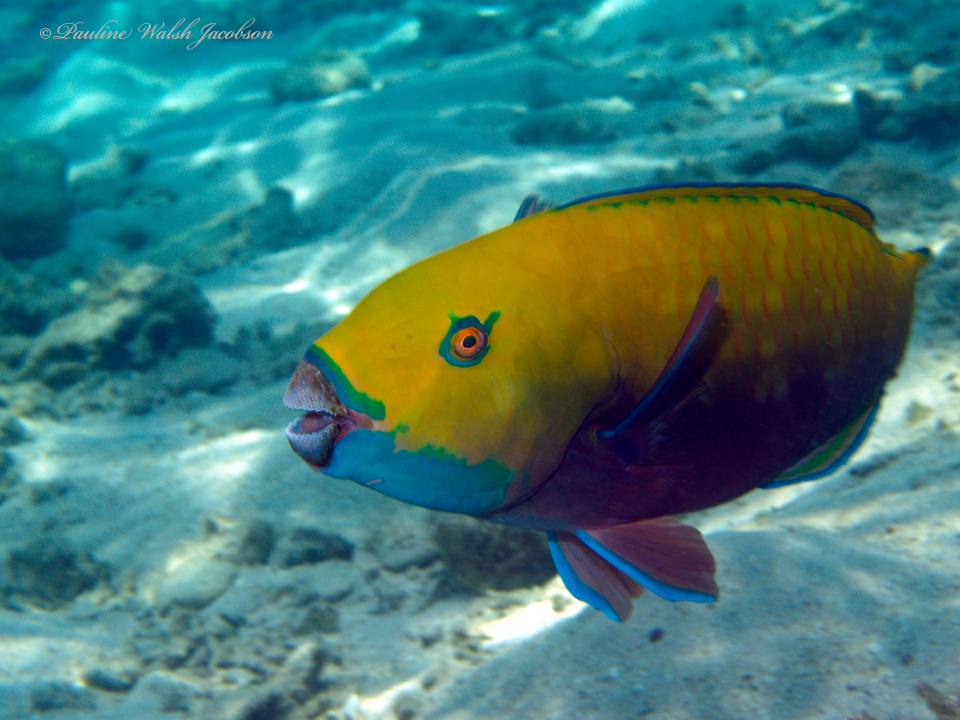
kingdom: Animalia
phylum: Chordata
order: Perciformes
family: Scaridae
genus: Chlorurus
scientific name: Chlorurus gibbus
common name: Heavybeak parrotfish
